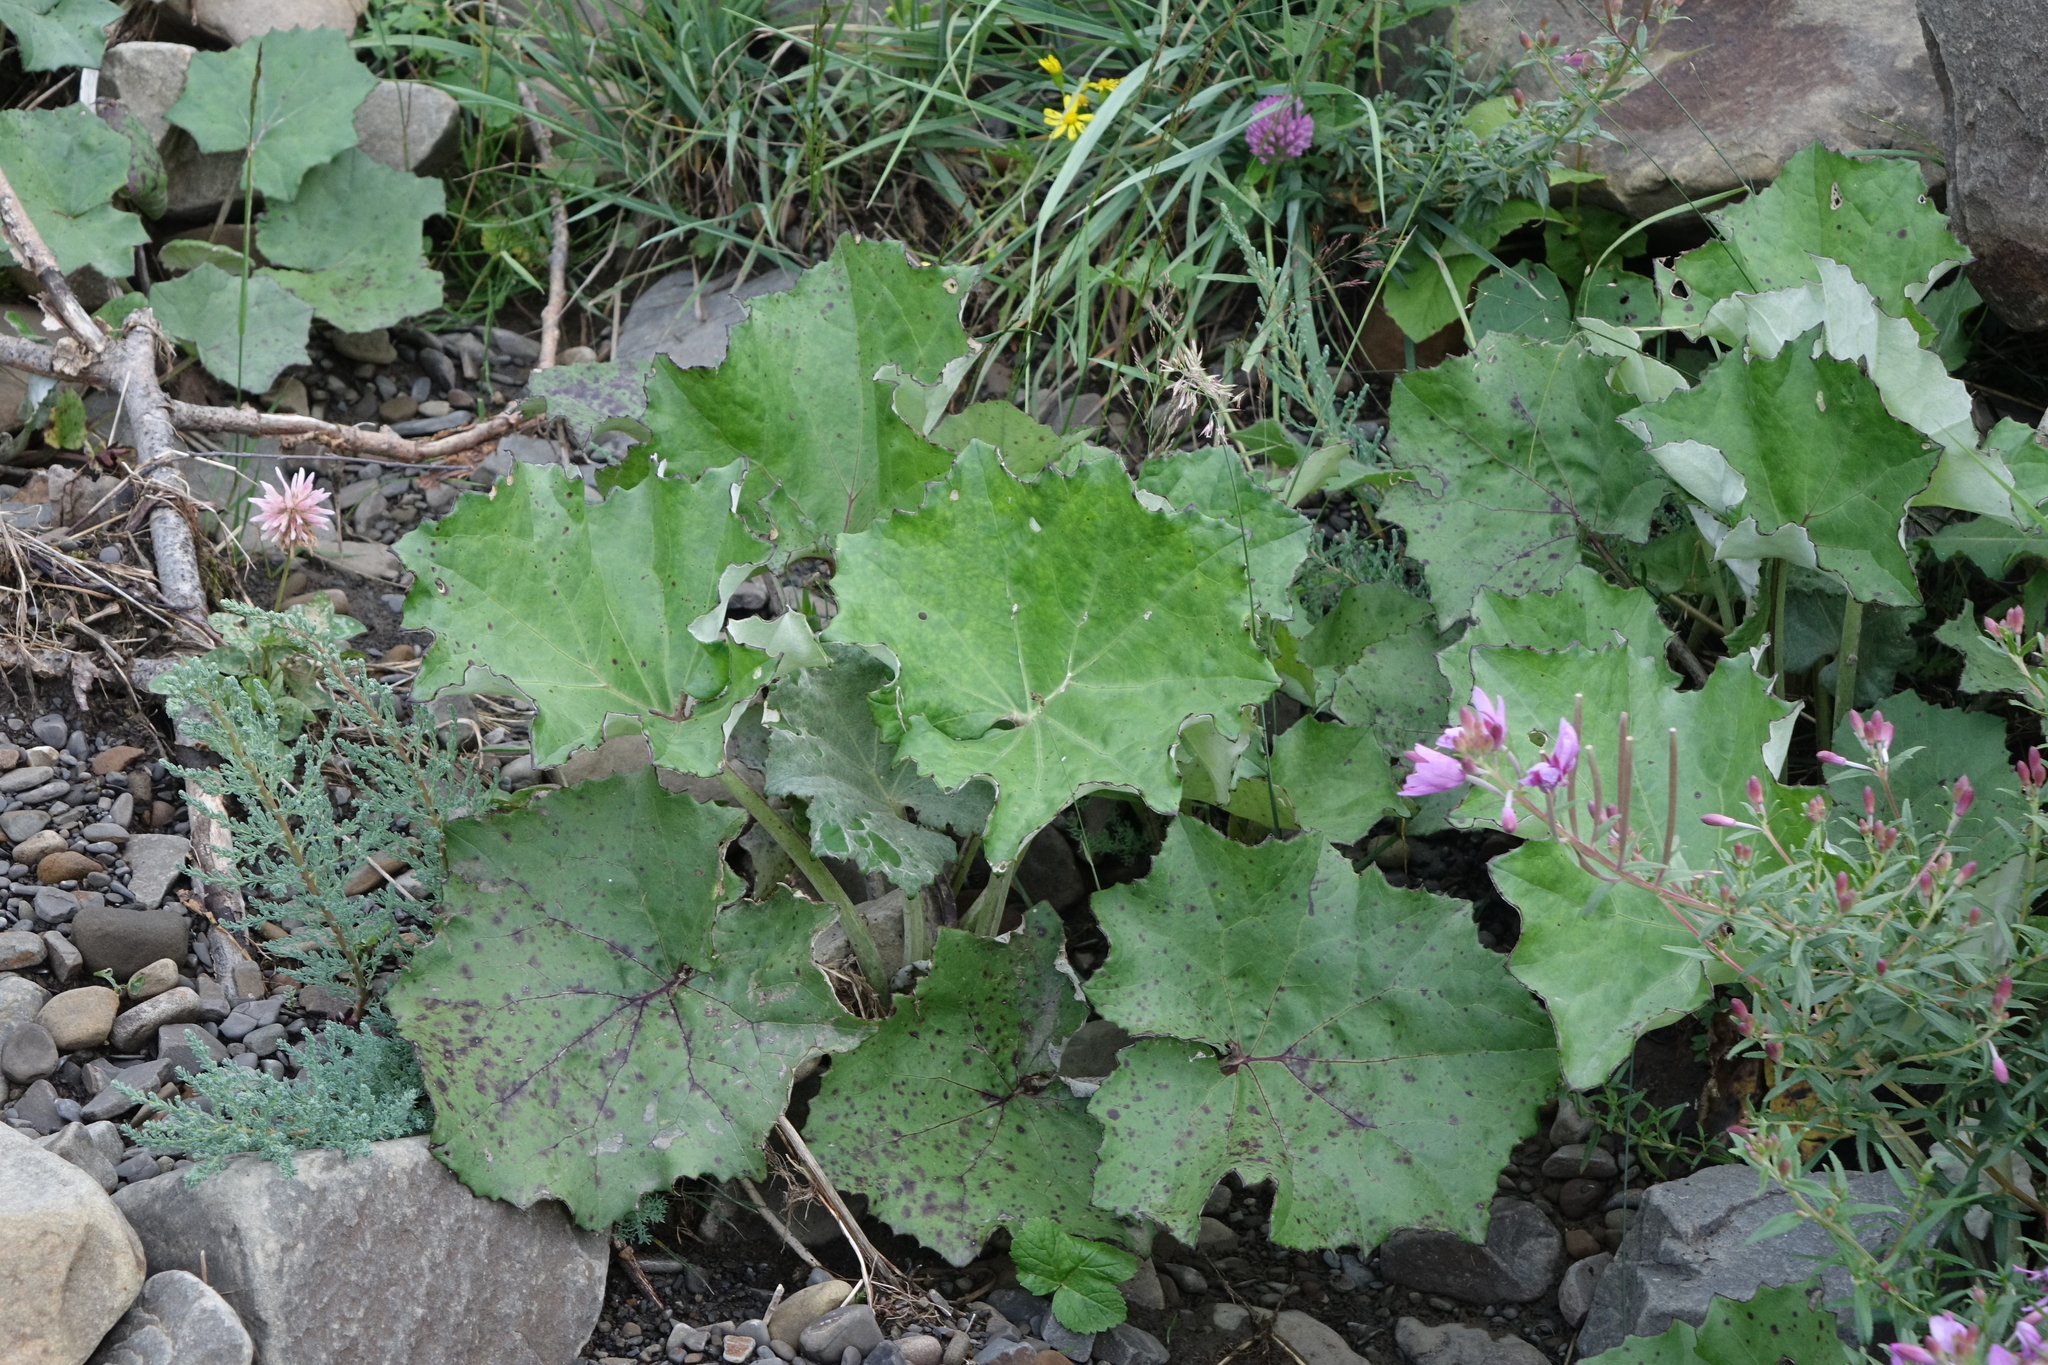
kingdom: Plantae
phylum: Tracheophyta
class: Magnoliopsida
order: Asterales
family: Asteraceae
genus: Tussilago
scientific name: Tussilago farfara
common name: Coltsfoot
